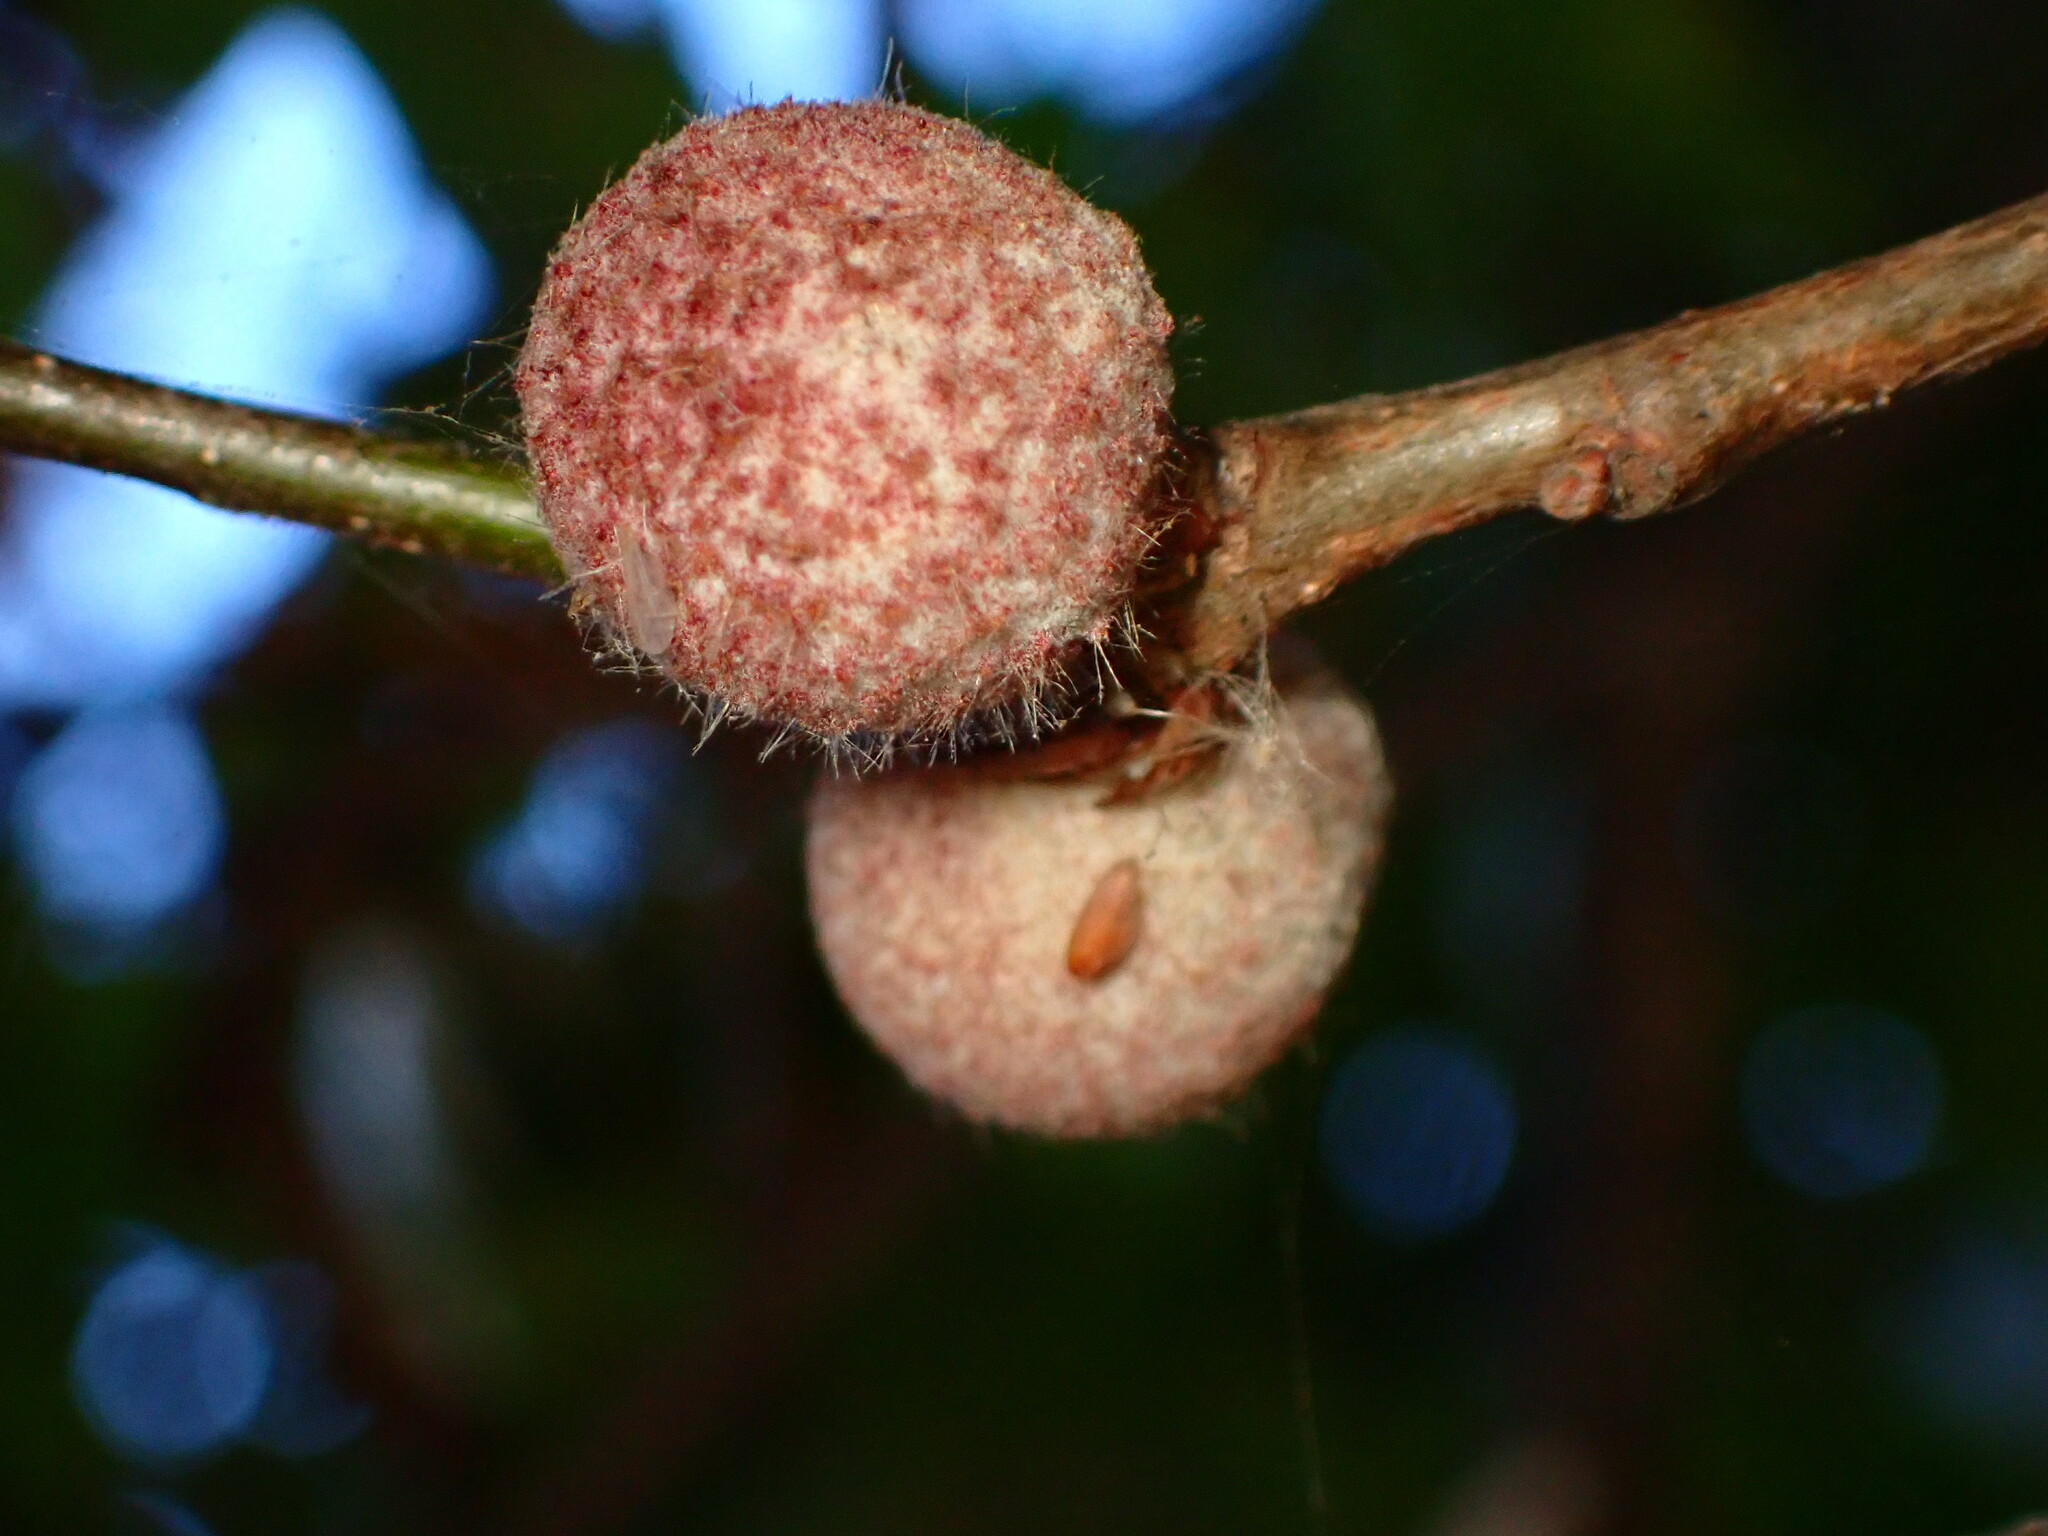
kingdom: Animalia
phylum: Arthropoda
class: Insecta
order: Hymenoptera
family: Cynipidae
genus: Burnettweldia
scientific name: Burnettweldia
